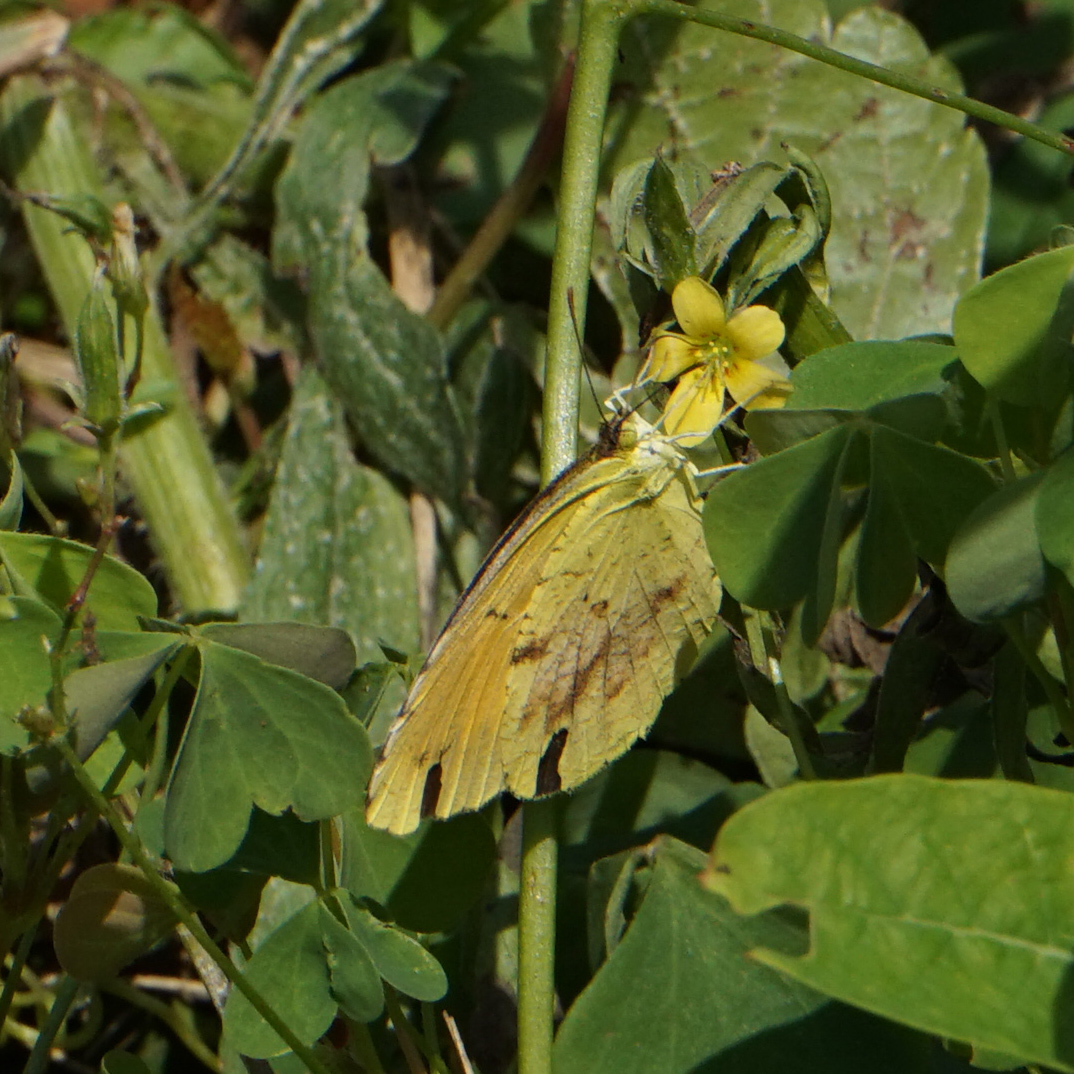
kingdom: Animalia
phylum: Arthropoda
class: Insecta
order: Lepidoptera
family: Pieridae
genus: Abaeis
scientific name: Abaeis nicippe
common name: Sleepy orange
